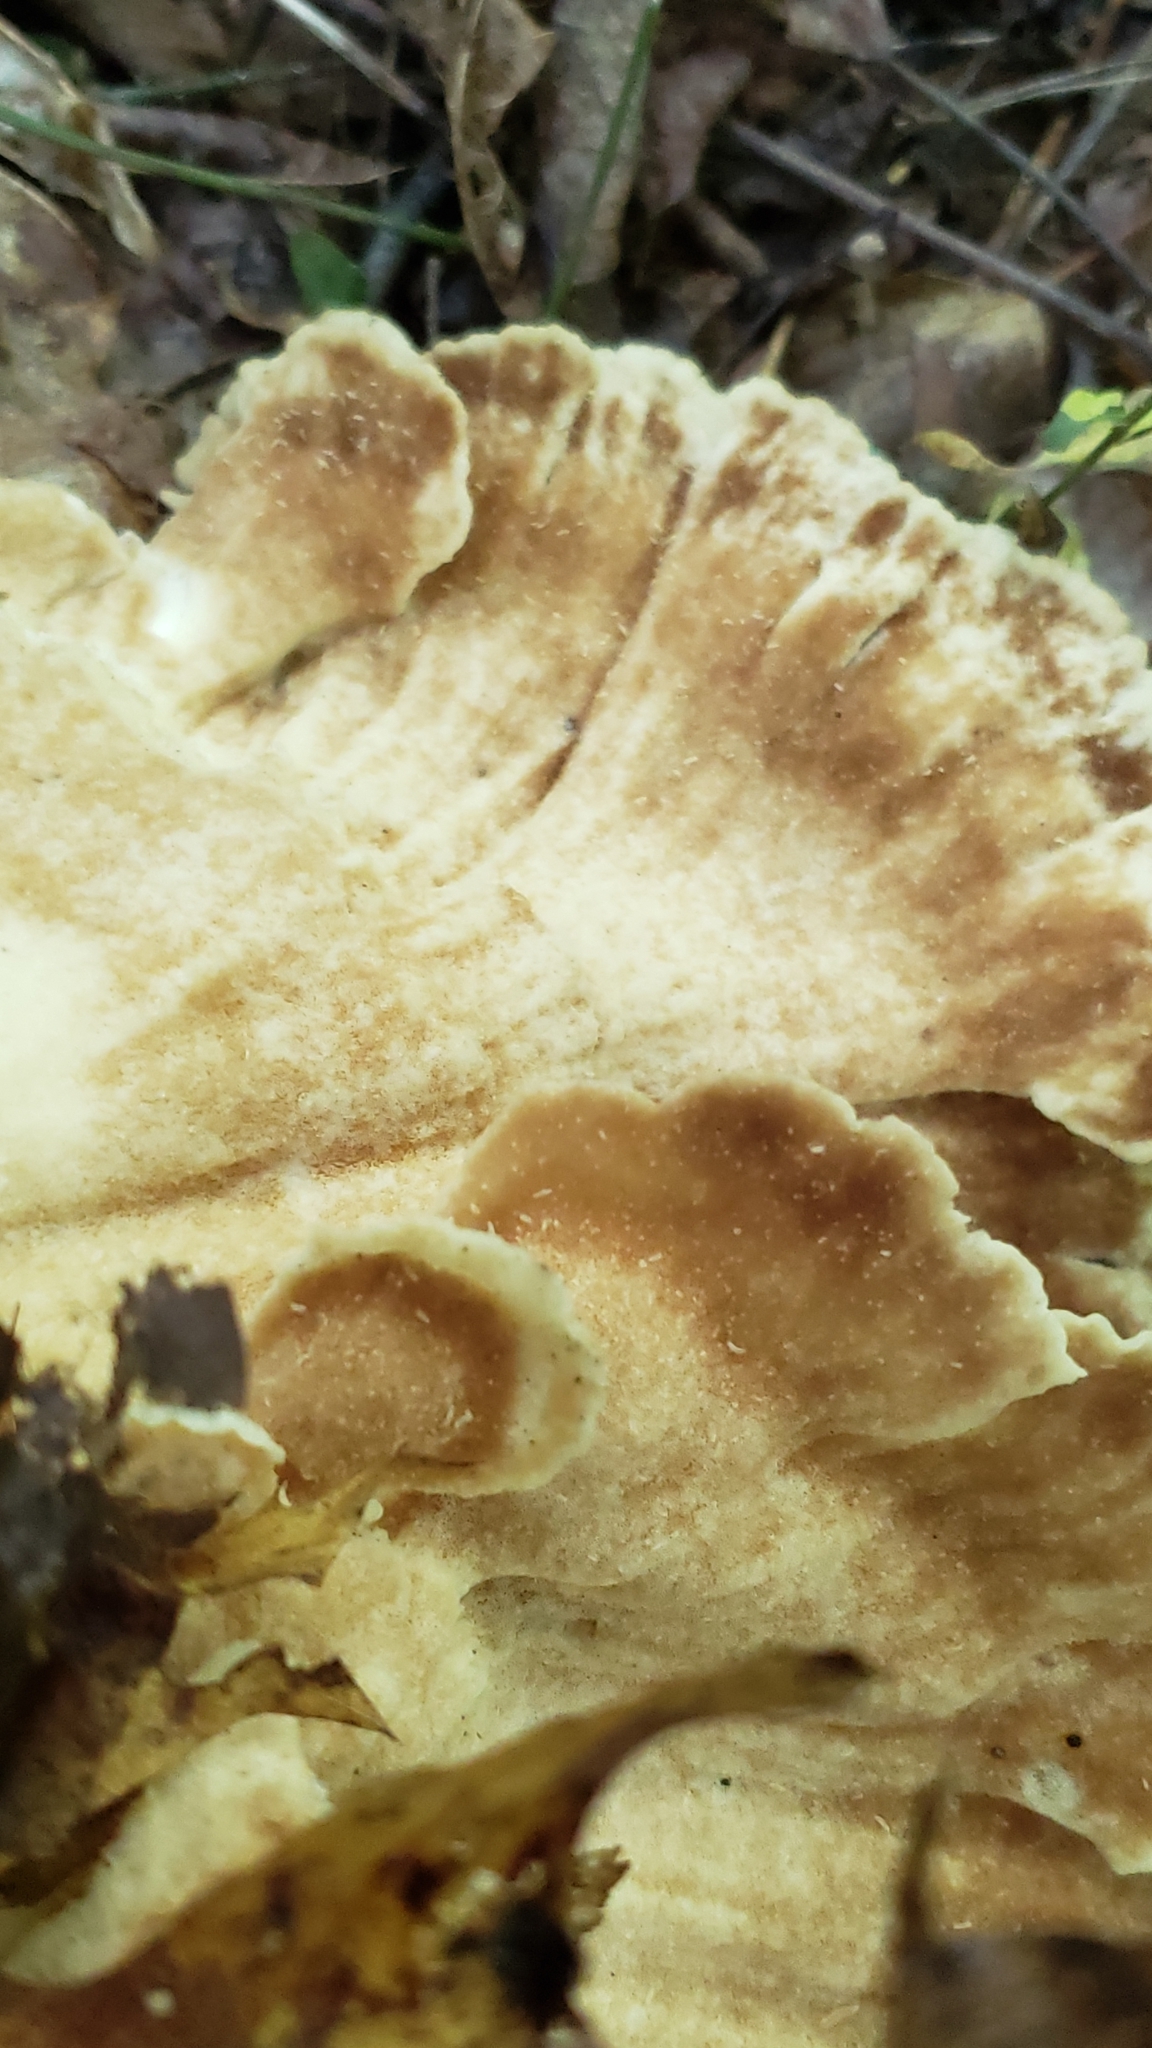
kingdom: Fungi
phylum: Basidiomycota
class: Agaricomycetes
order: Polyporales
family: Meripilaceae
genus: Meripilus
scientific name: Meripilus sumstinei
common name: Black-staining polypore
